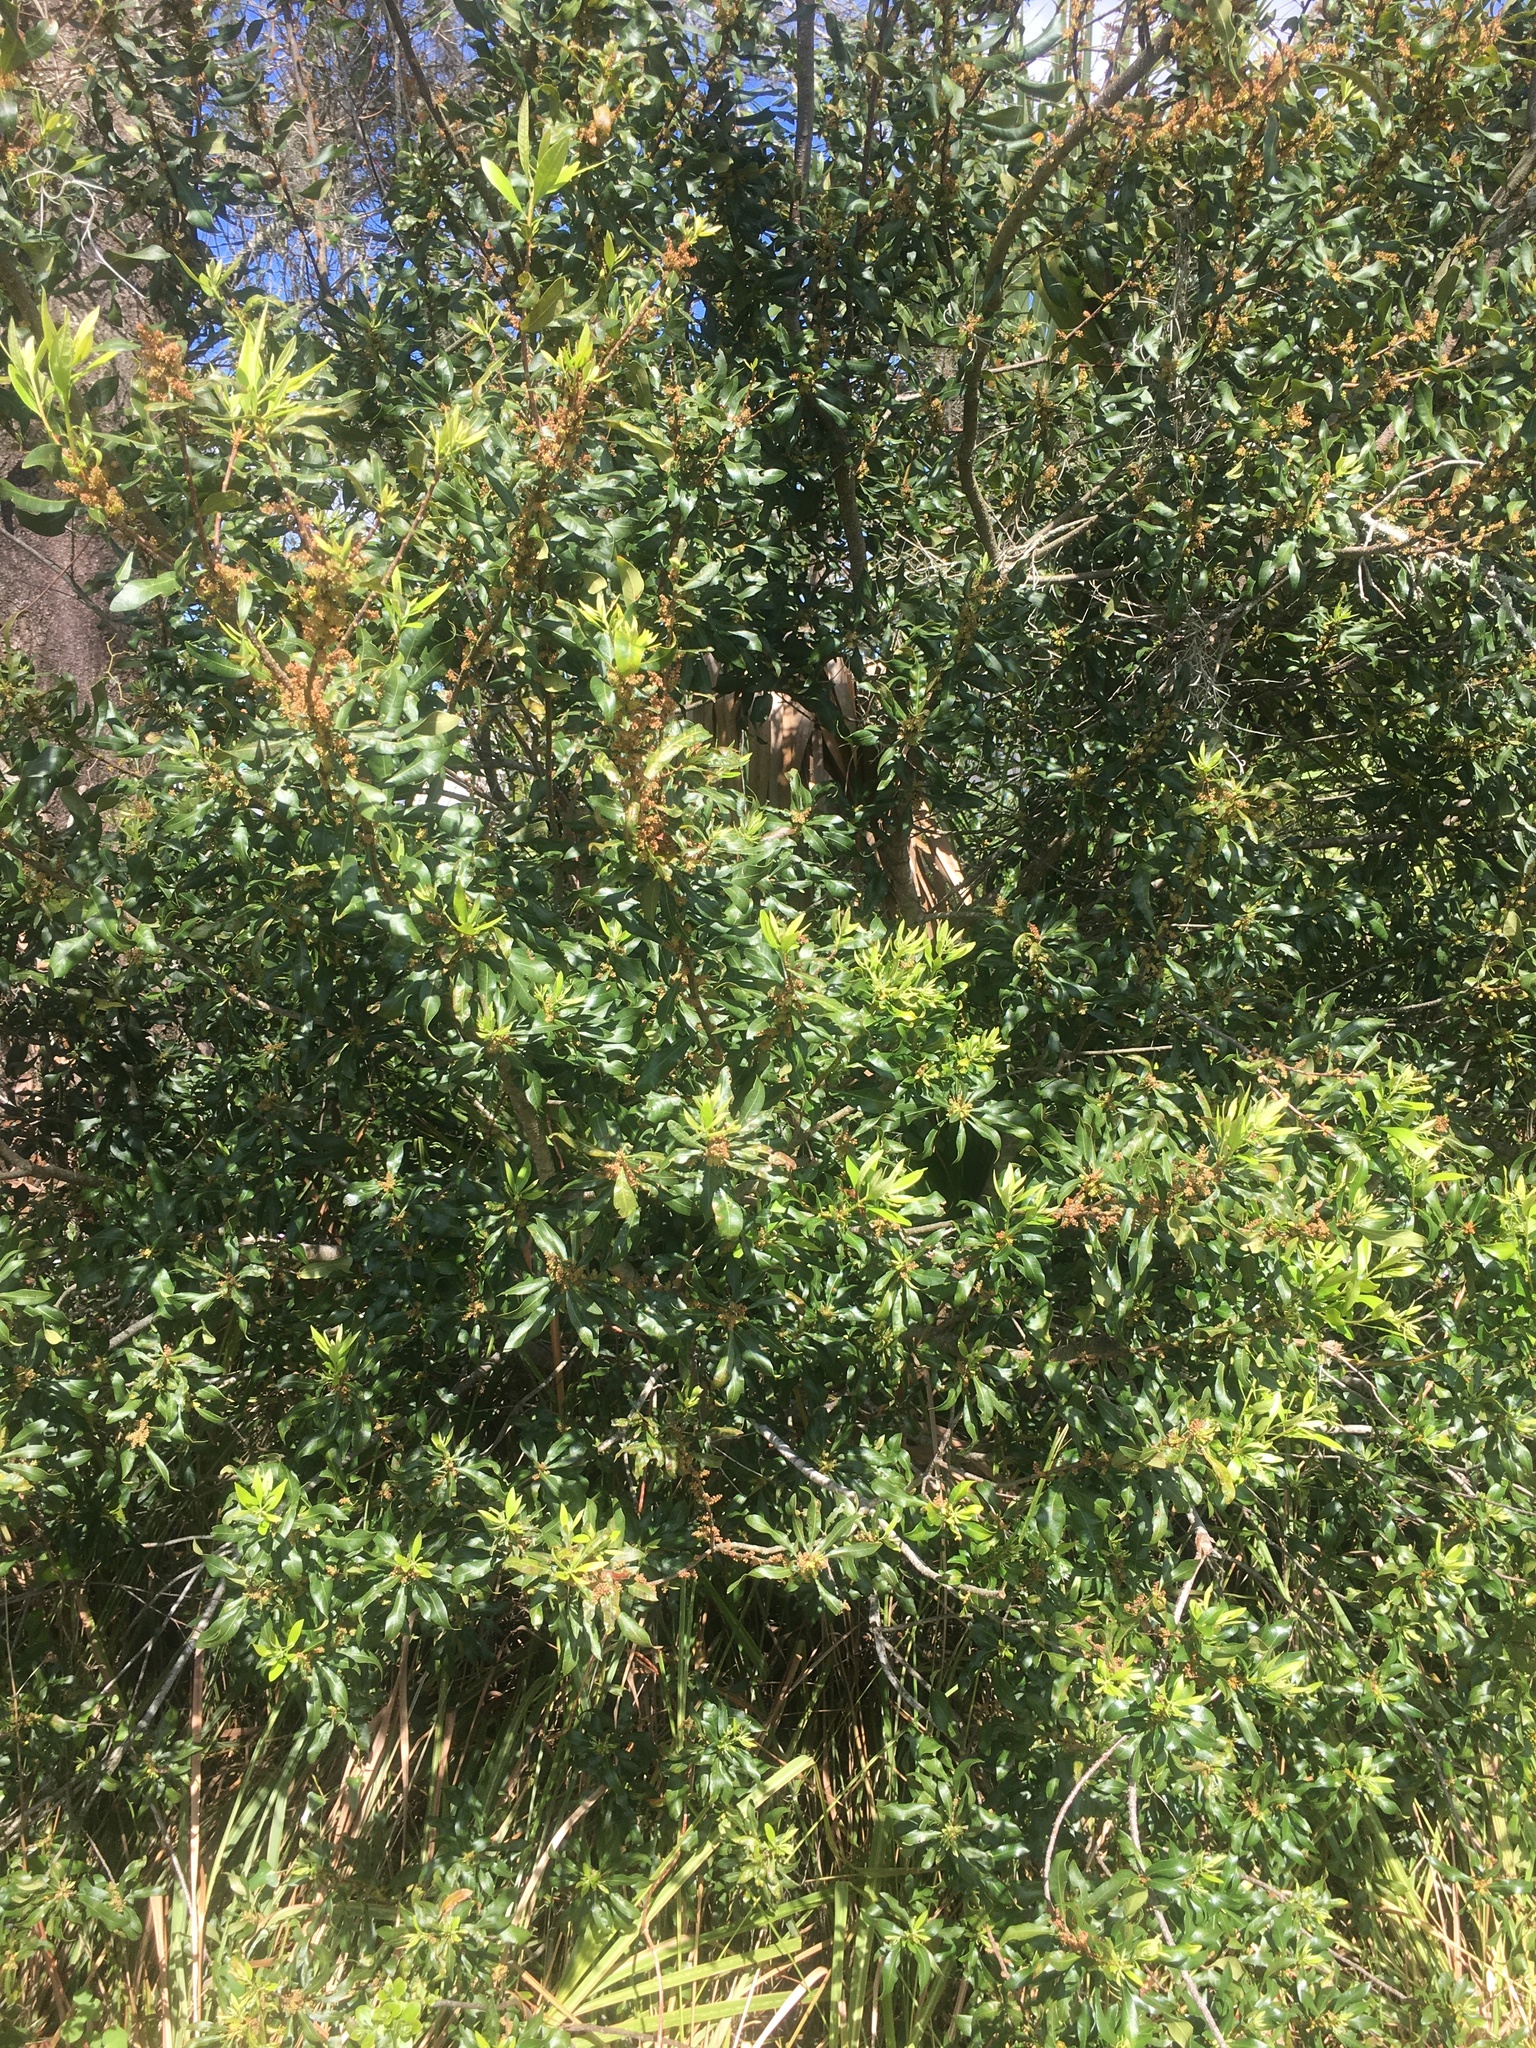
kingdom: Plantae
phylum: Tracheophyta
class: Magnoliopsida
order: Fagales
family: Myricaceae
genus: Morella
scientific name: Morella cerifera
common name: Wax myrtle
